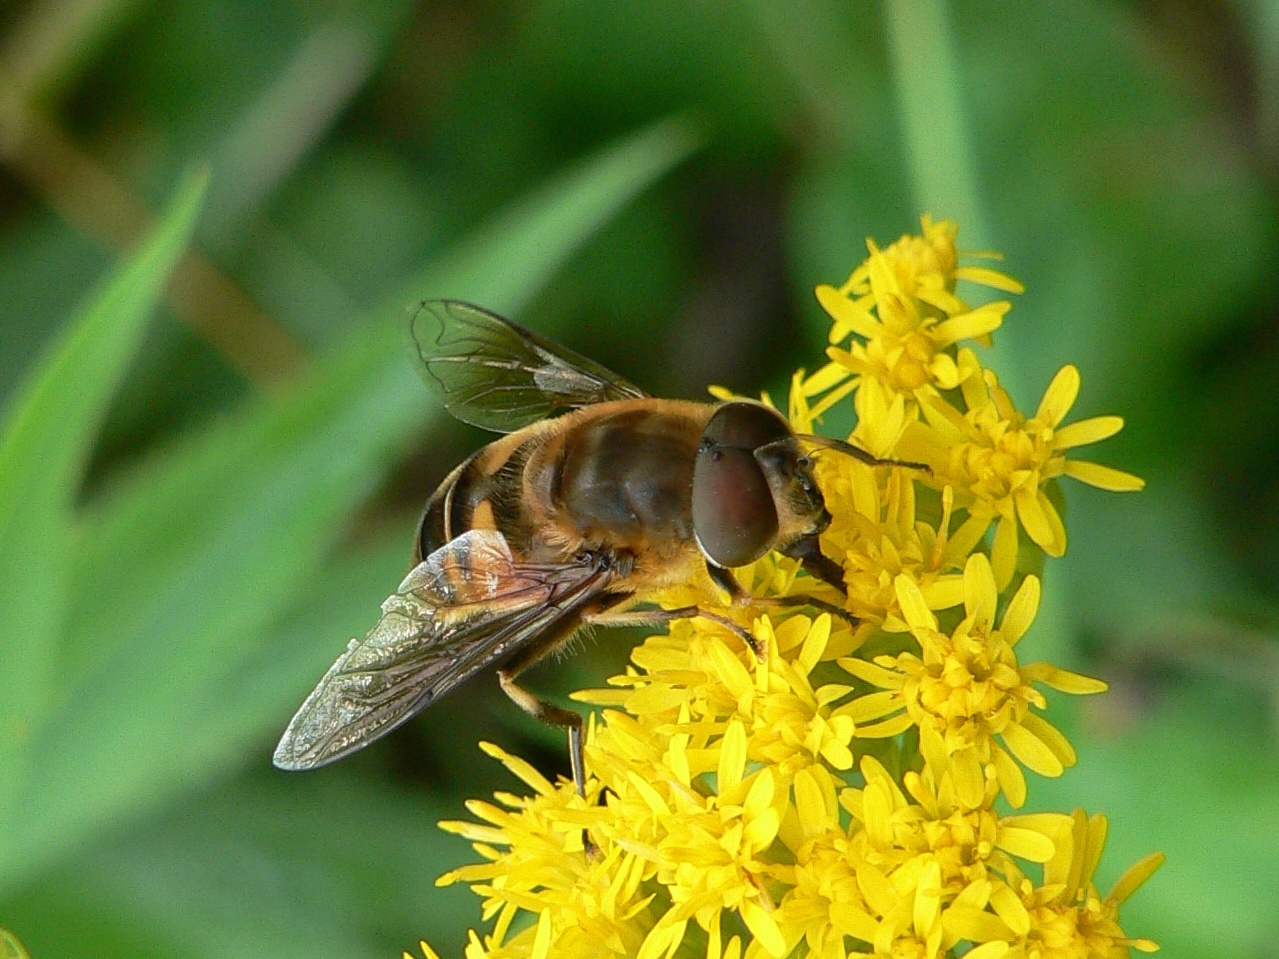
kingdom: Animalia
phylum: Arthropoda
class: Insecta
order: Diptera
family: Syrphidae
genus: Eristalis
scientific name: Eristalis pertinax
